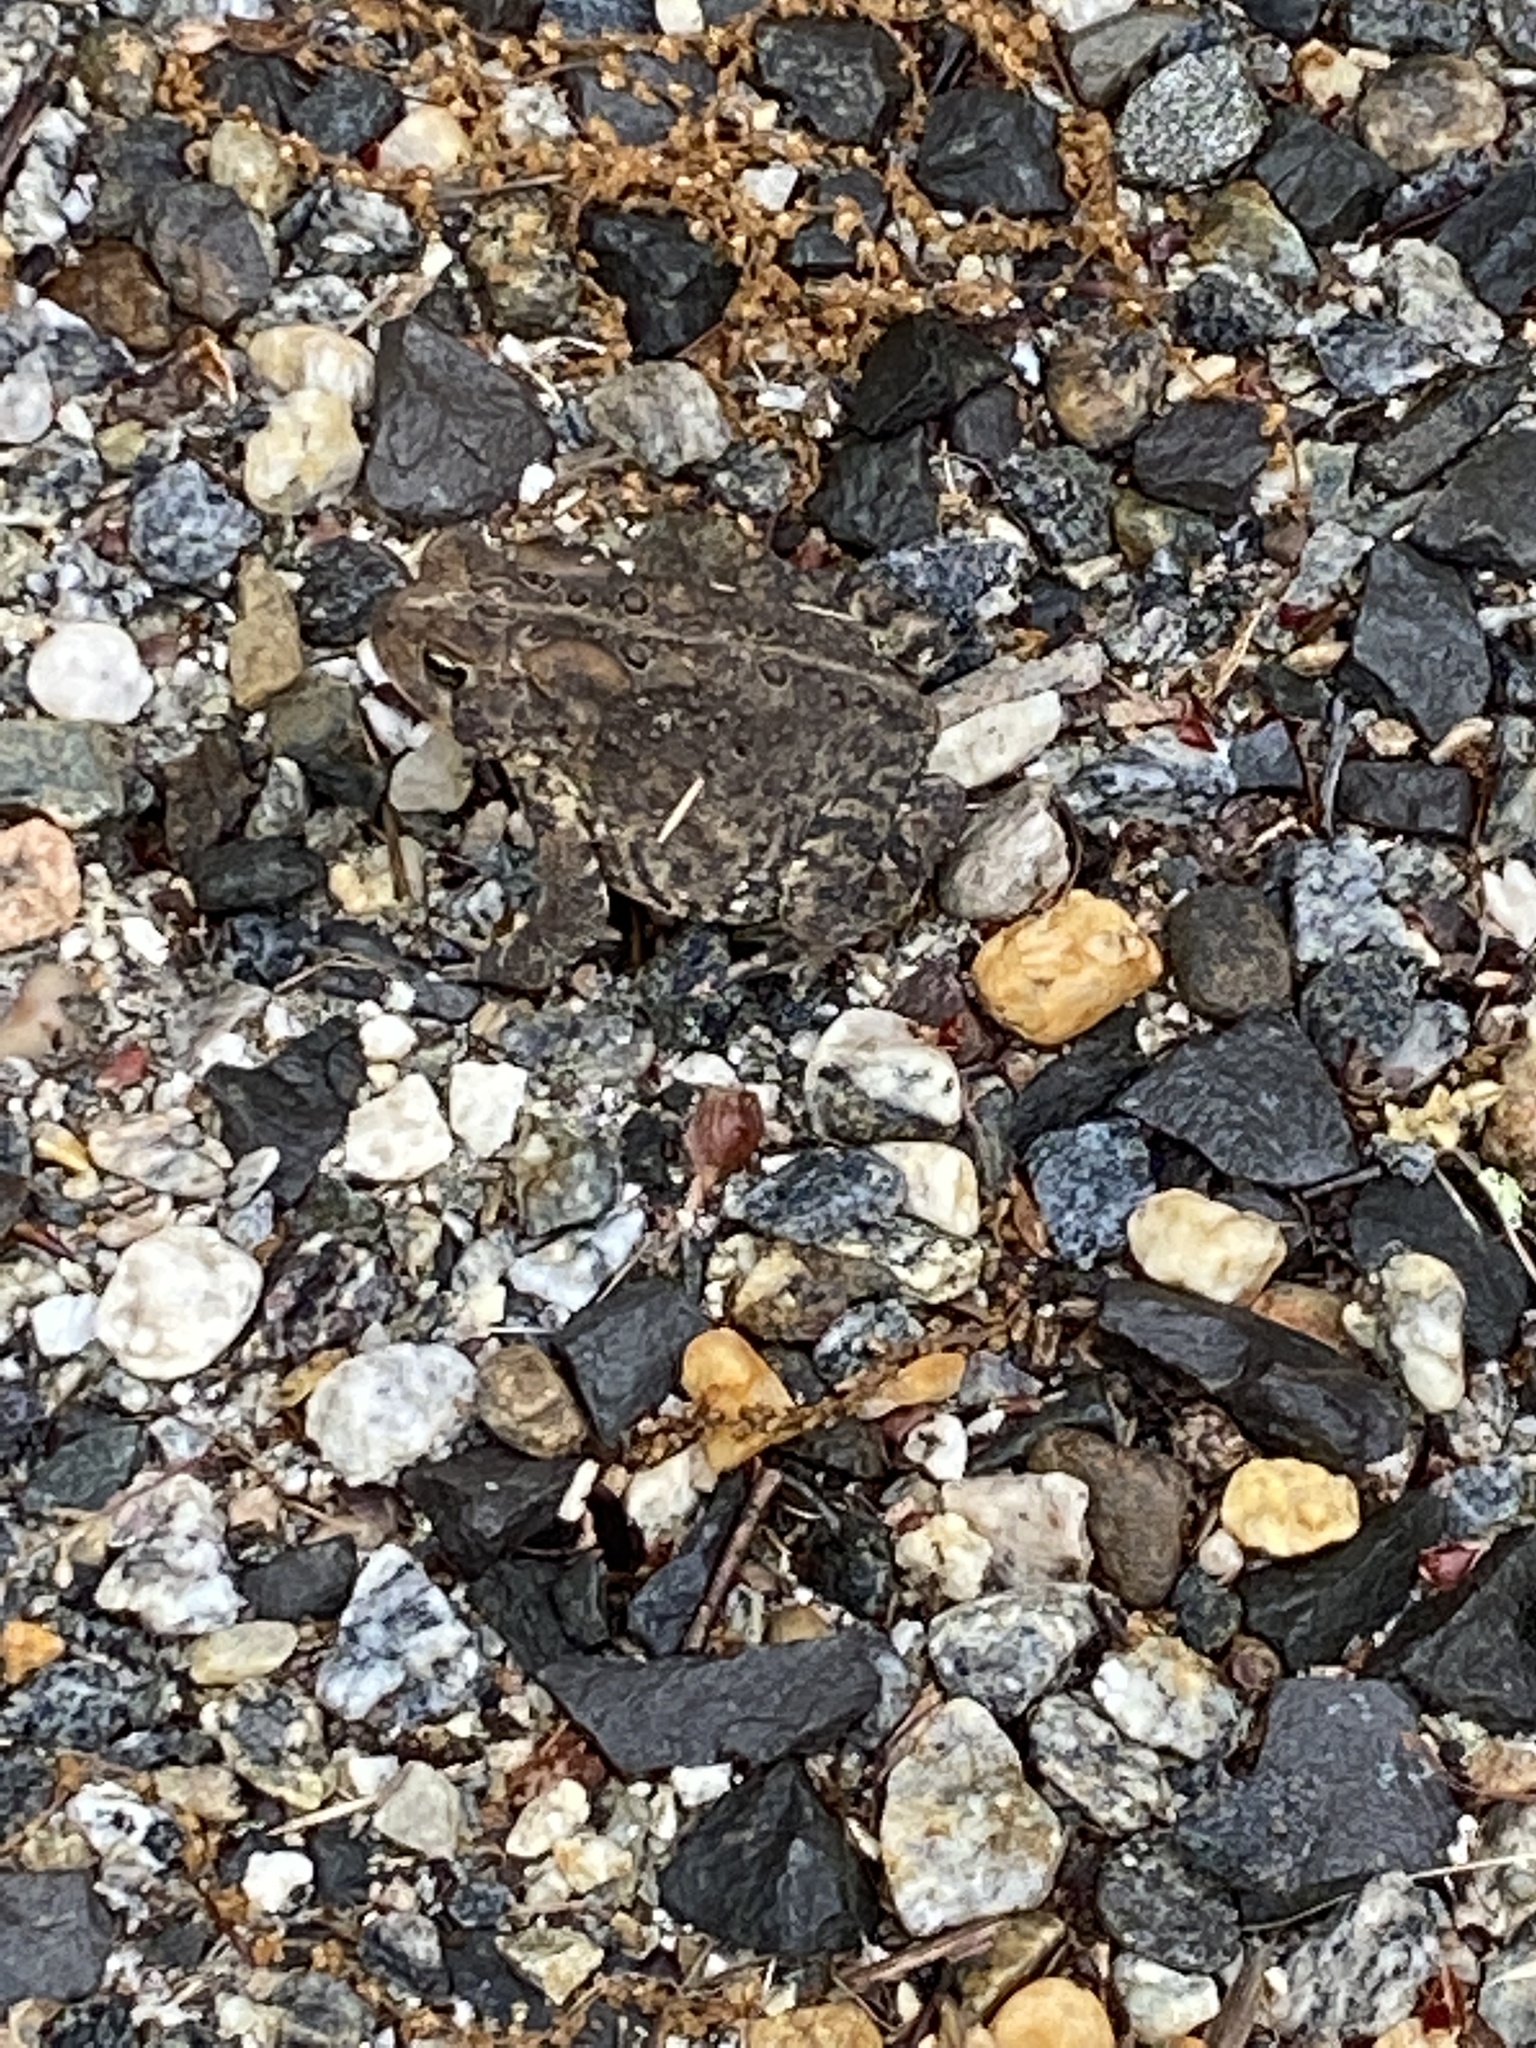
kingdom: Animalia
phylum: Chordata
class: Amphibia
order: Anura
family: Bufonidae
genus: Anaxyrus
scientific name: Anaxyrus americanus
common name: American toad
